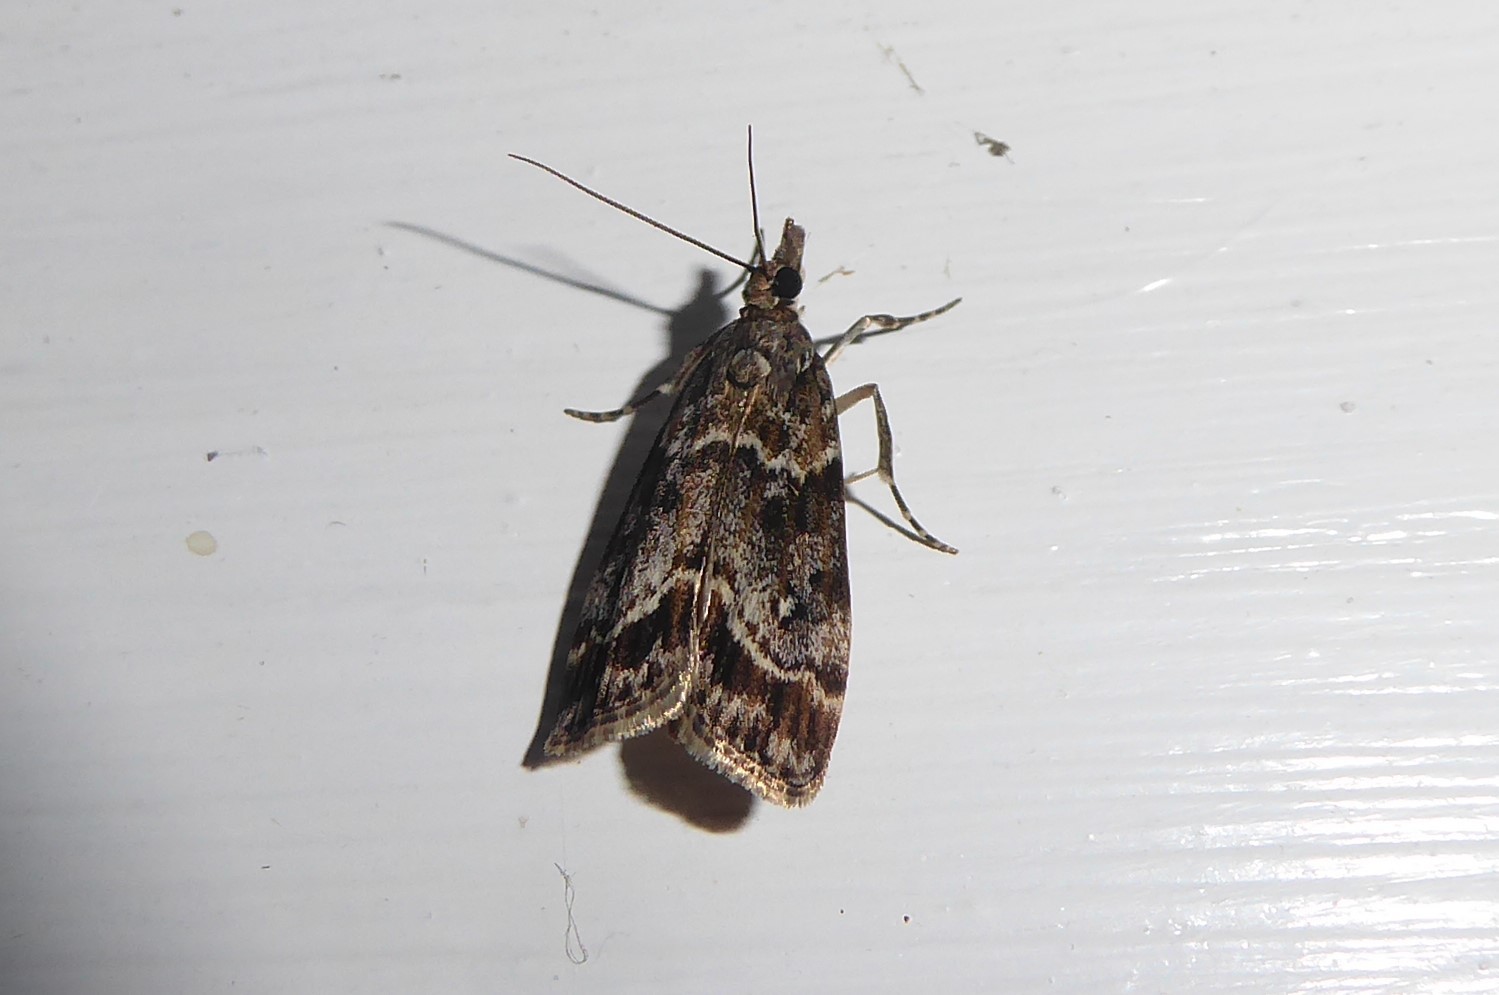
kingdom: Animalia
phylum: Arthropoda
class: Insecta
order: Lepidoptera
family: Crambidae
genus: Eudonia
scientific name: Eudonia legnota
